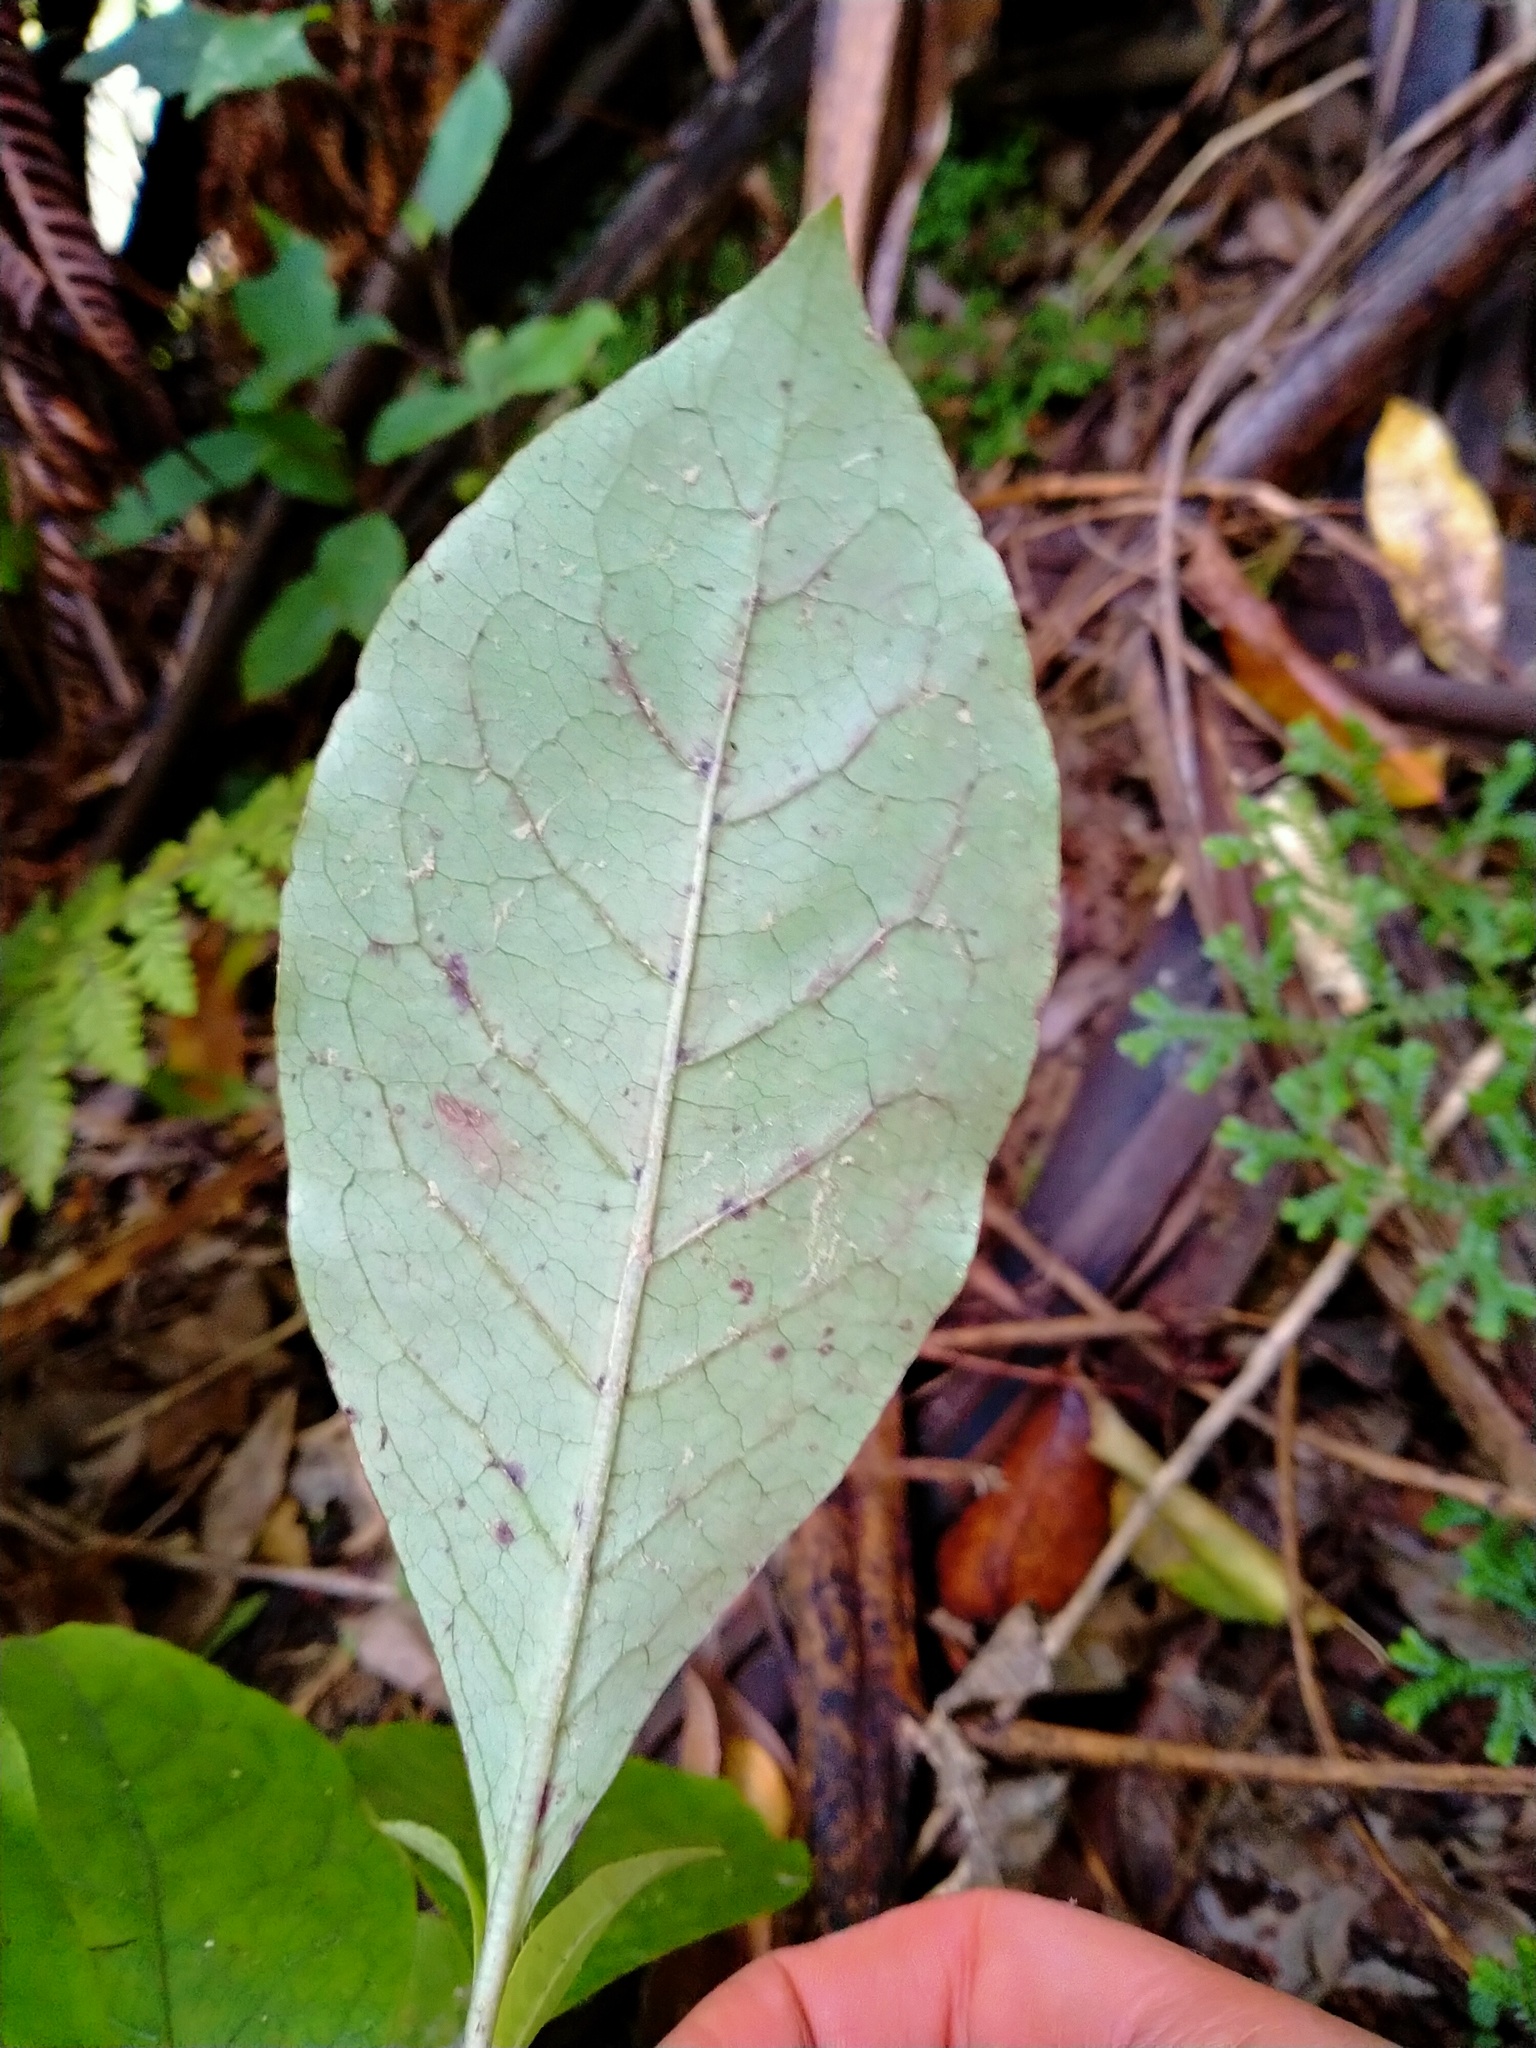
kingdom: Plantae
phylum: Tracheophyta
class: Magnoliopsida
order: Gentianales
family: Rubiaceae
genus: Coprosma
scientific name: Coprosma autumnalis
